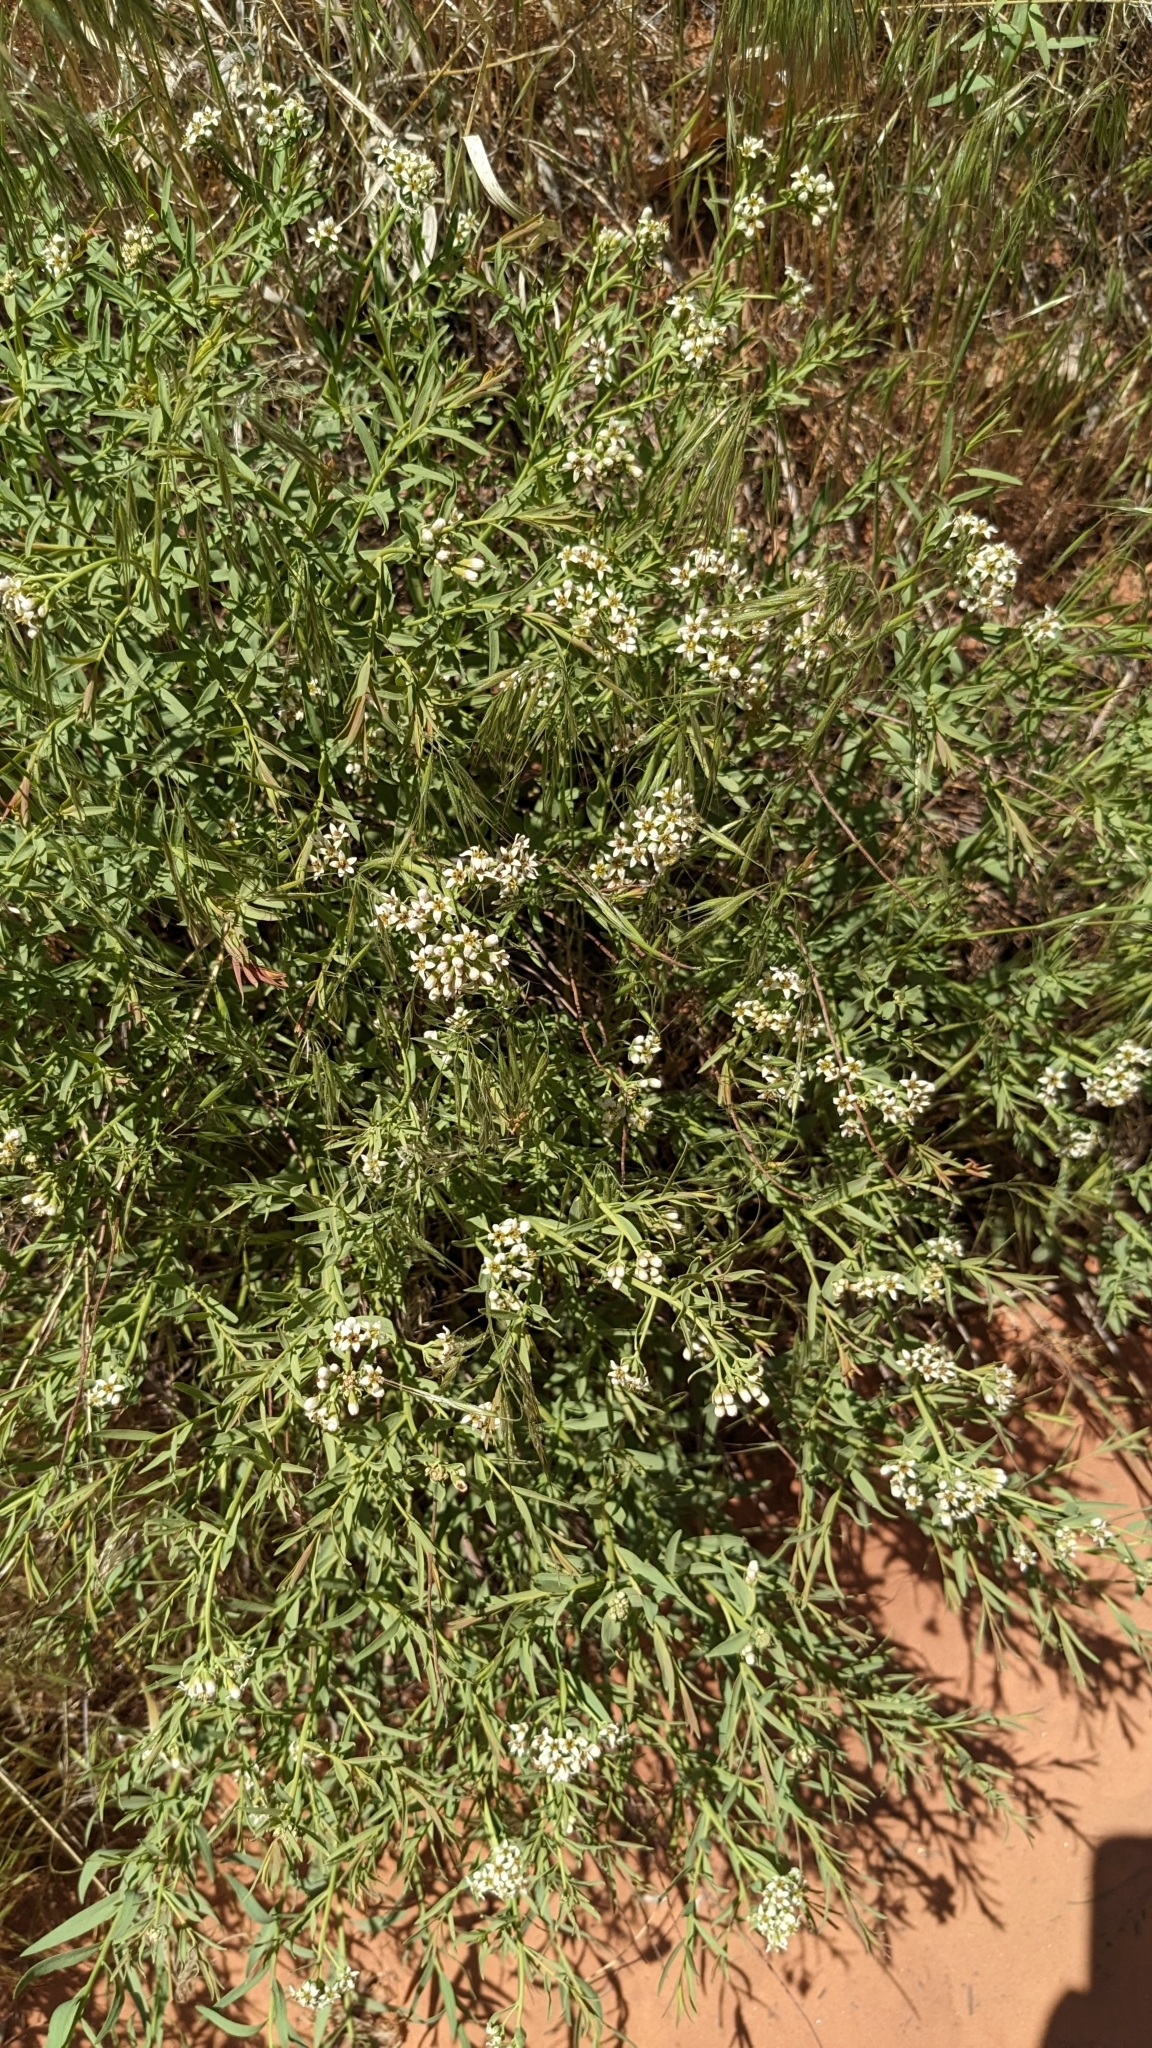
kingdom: Plantae
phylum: Tracheophyta
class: Magnoliopsida
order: Santalales
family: Comandraceae
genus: Comandra
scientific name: Comandra umbellata
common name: Bastard toadflax
